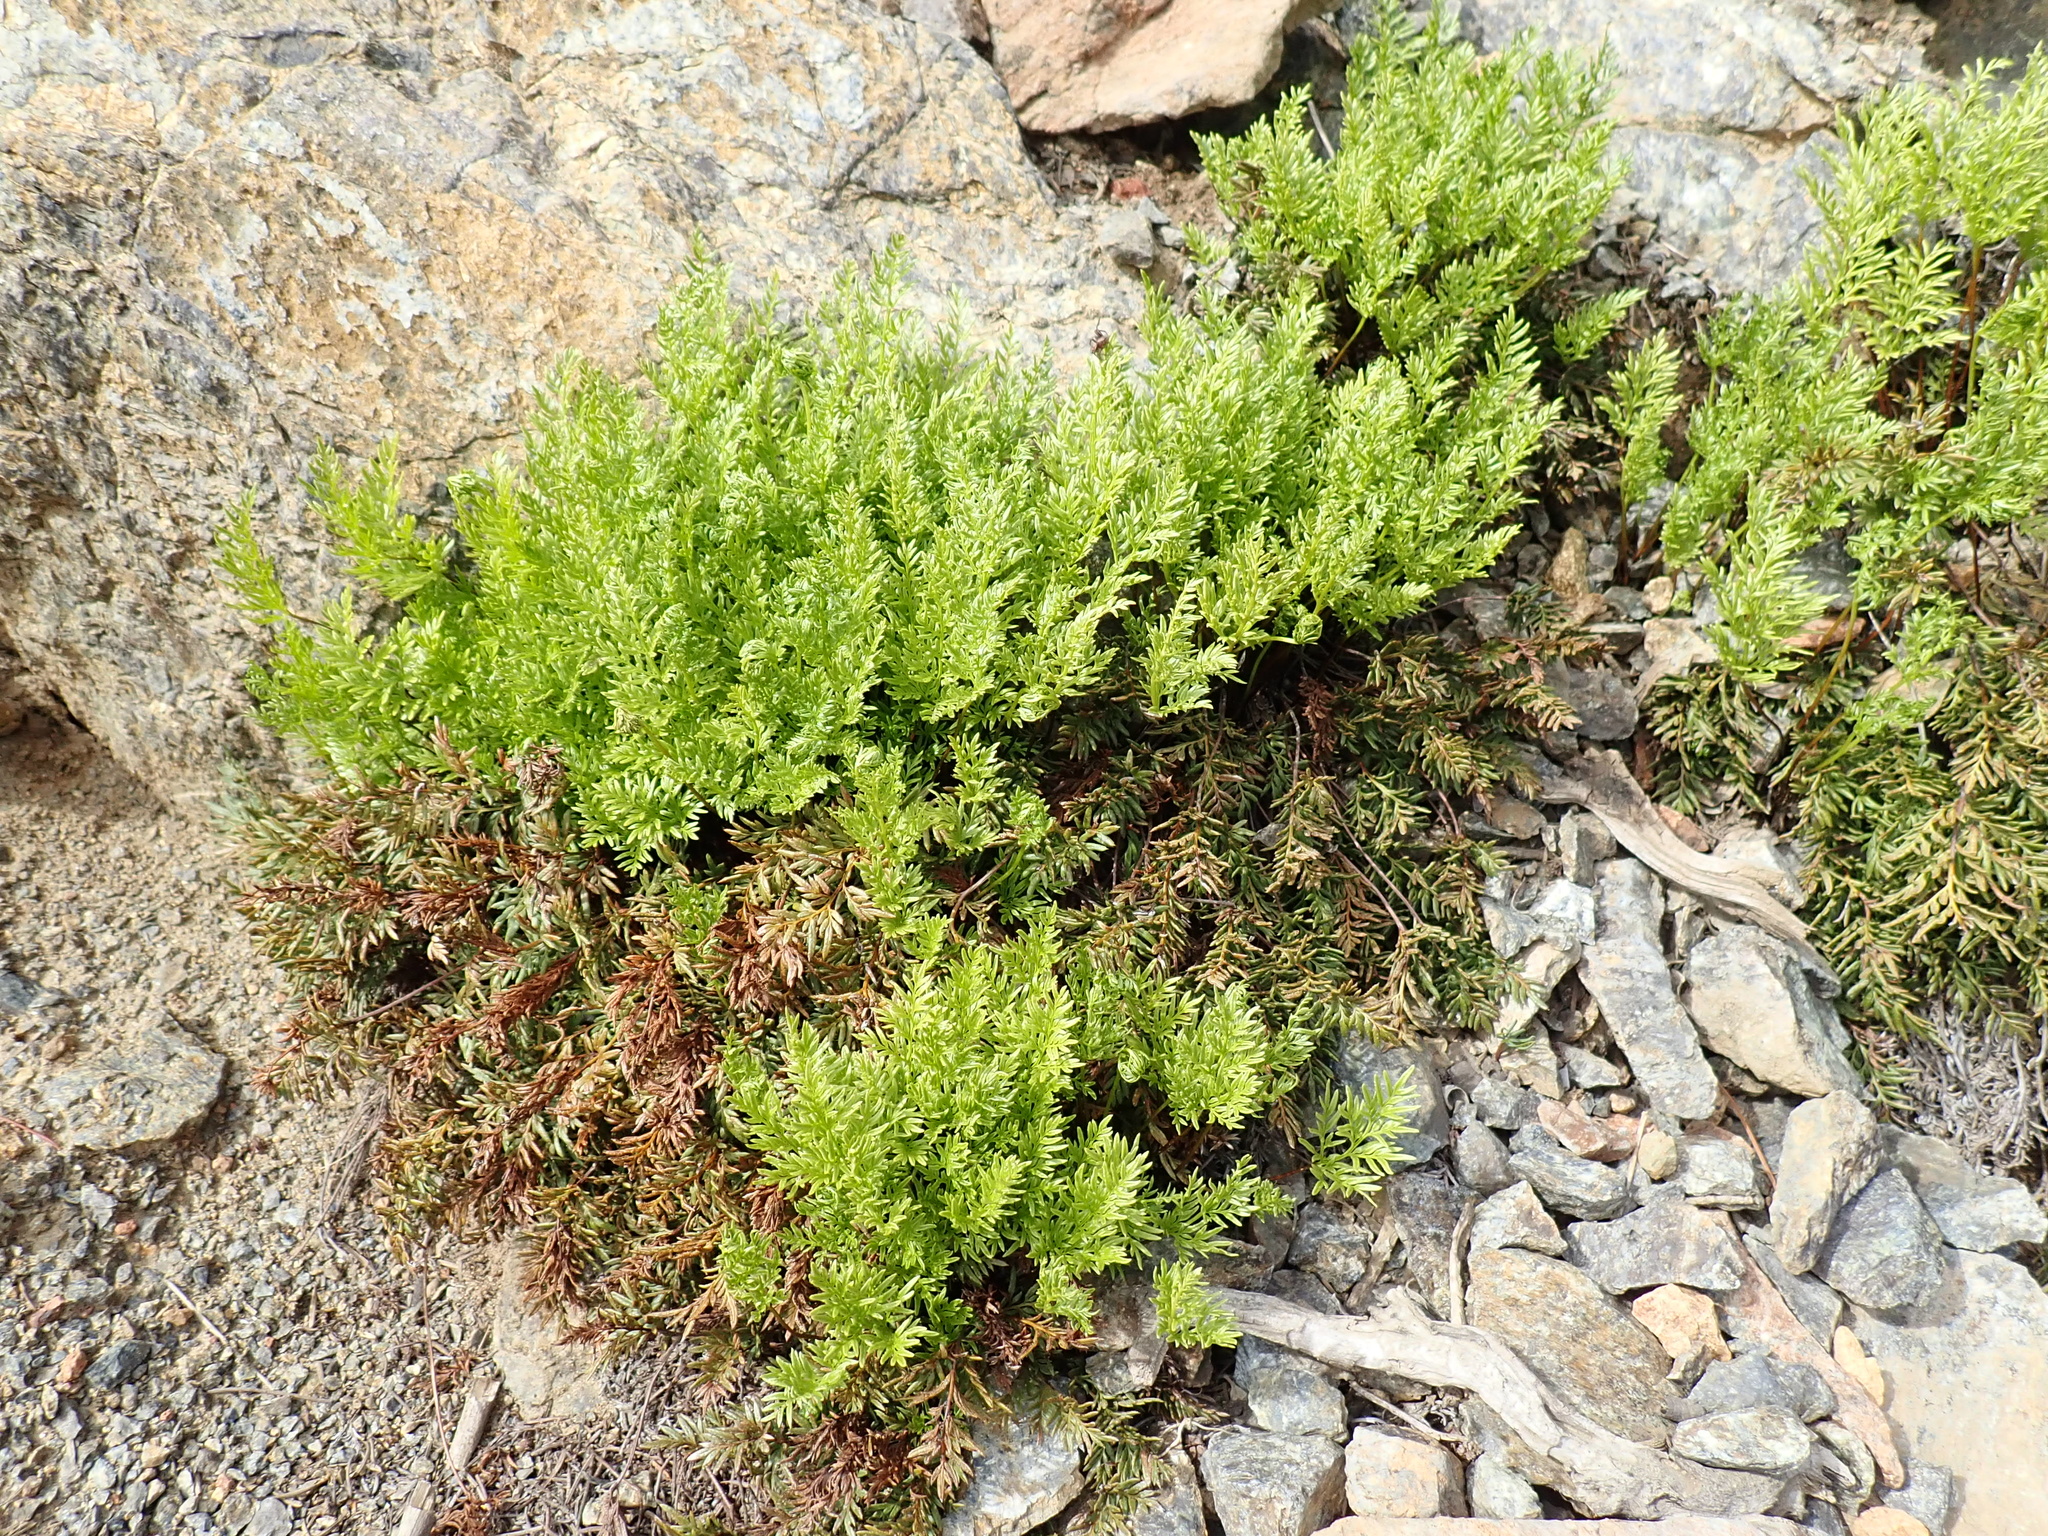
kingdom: Plantae
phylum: Tracheophyta
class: Polypodiopsida
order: Polypodiales
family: Pteridaceae
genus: Aspidotis
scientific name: Aspidotis densa
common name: Indian's dream
